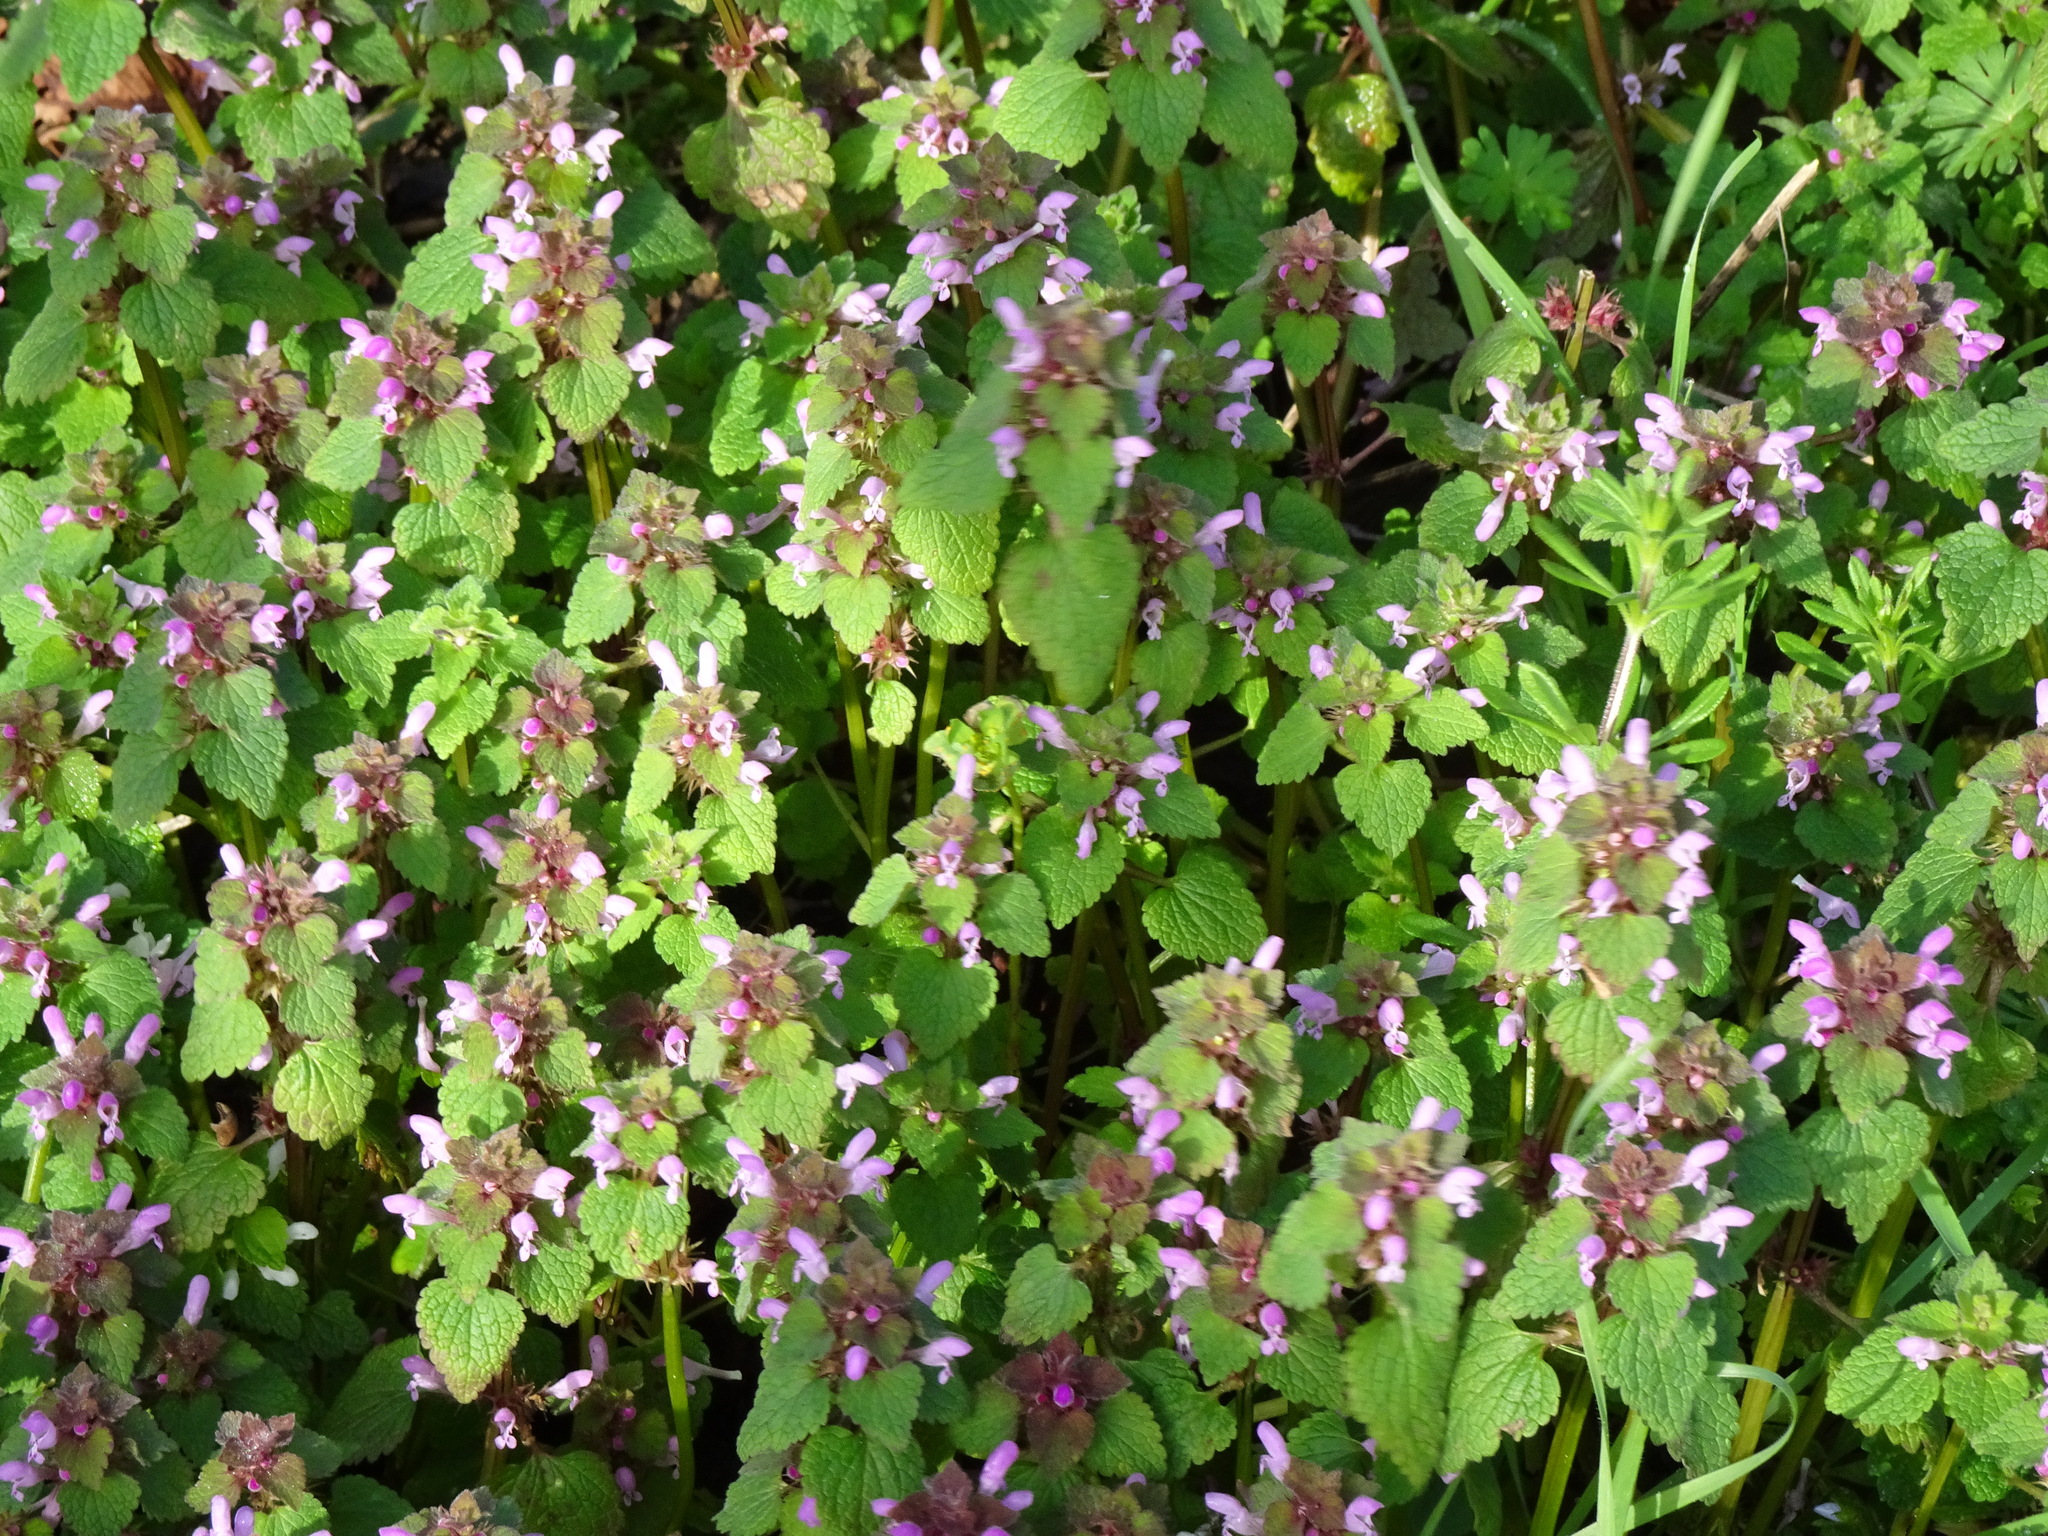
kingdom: Plantae
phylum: Tracheophyta
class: Magnoliopsida
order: Lamiales
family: Lamiaceae
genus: Lamium
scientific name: Lamium purpureum
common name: Red dead-nettle
